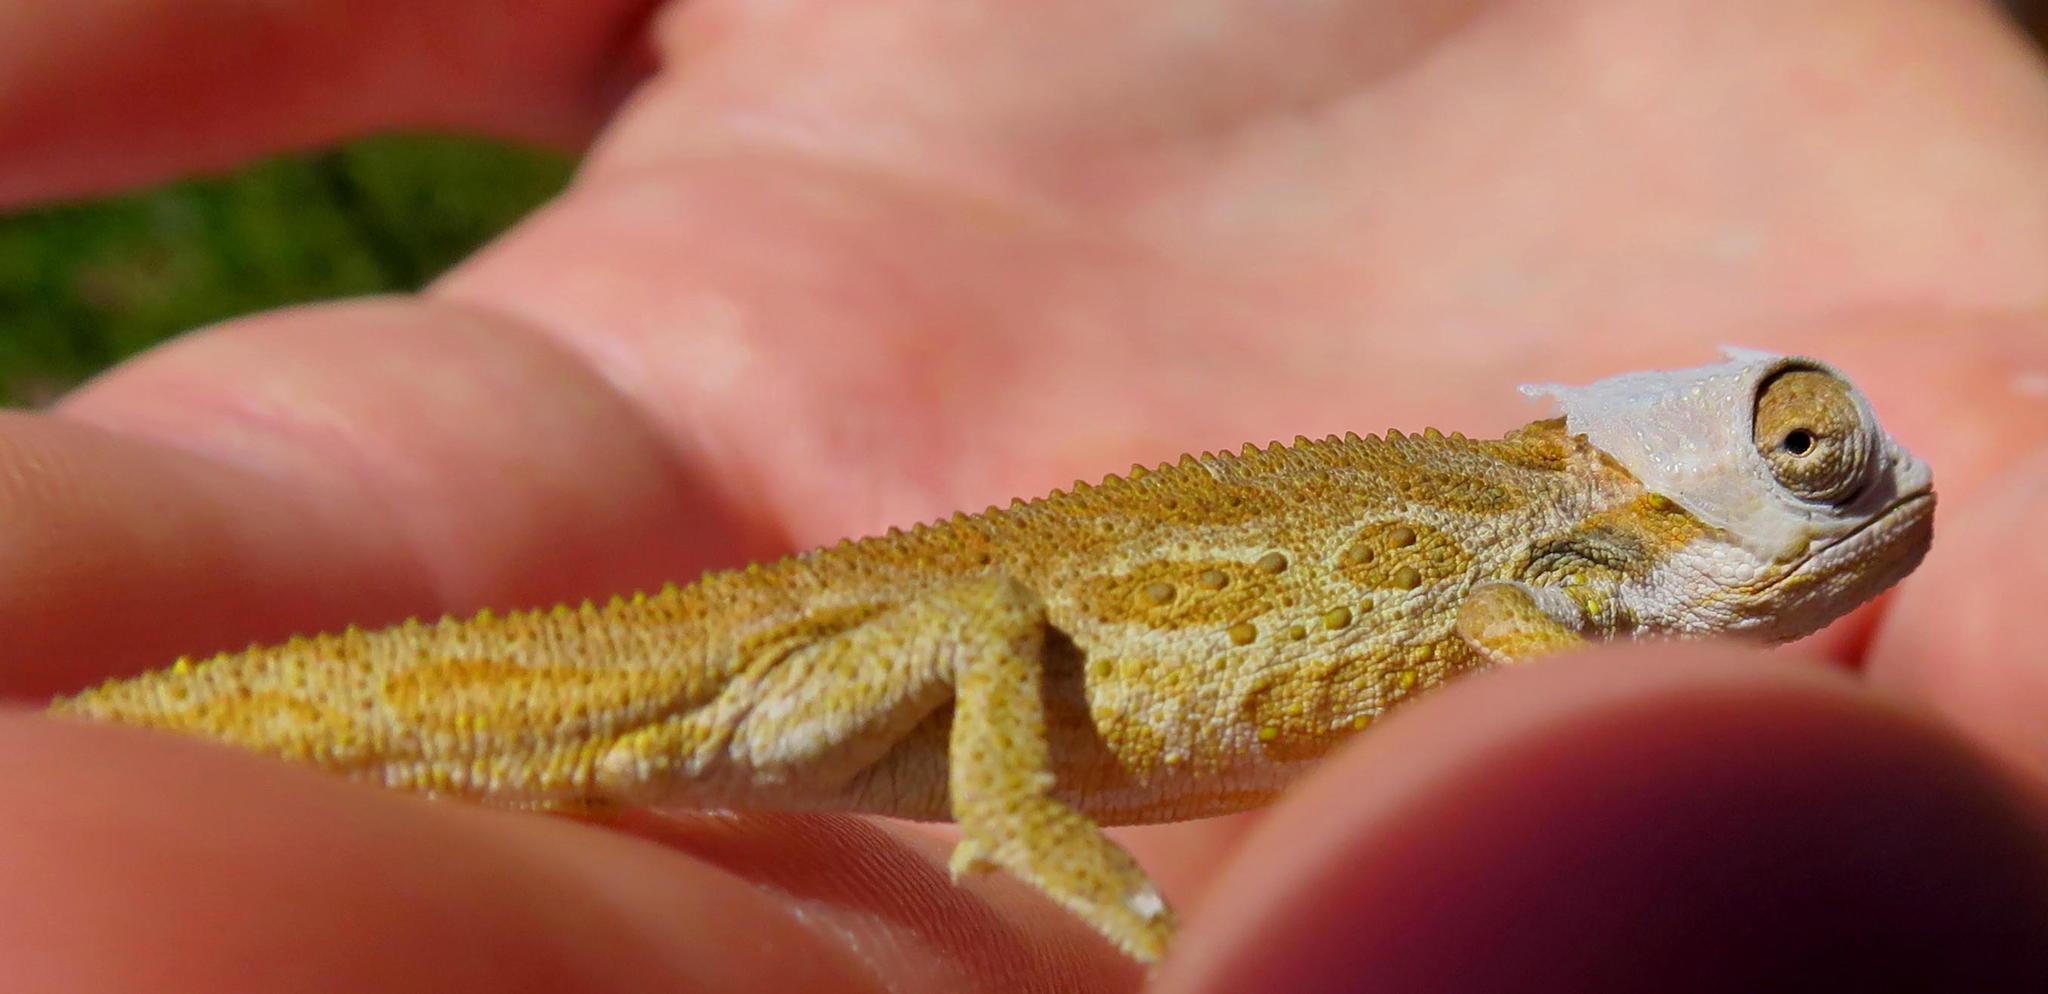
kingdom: Animalia
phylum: Chordata
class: Squamata
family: Chamaeleonidae
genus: Bradypodion
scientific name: Bradypodion barbatulum
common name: Beardless dwarf chameleon
